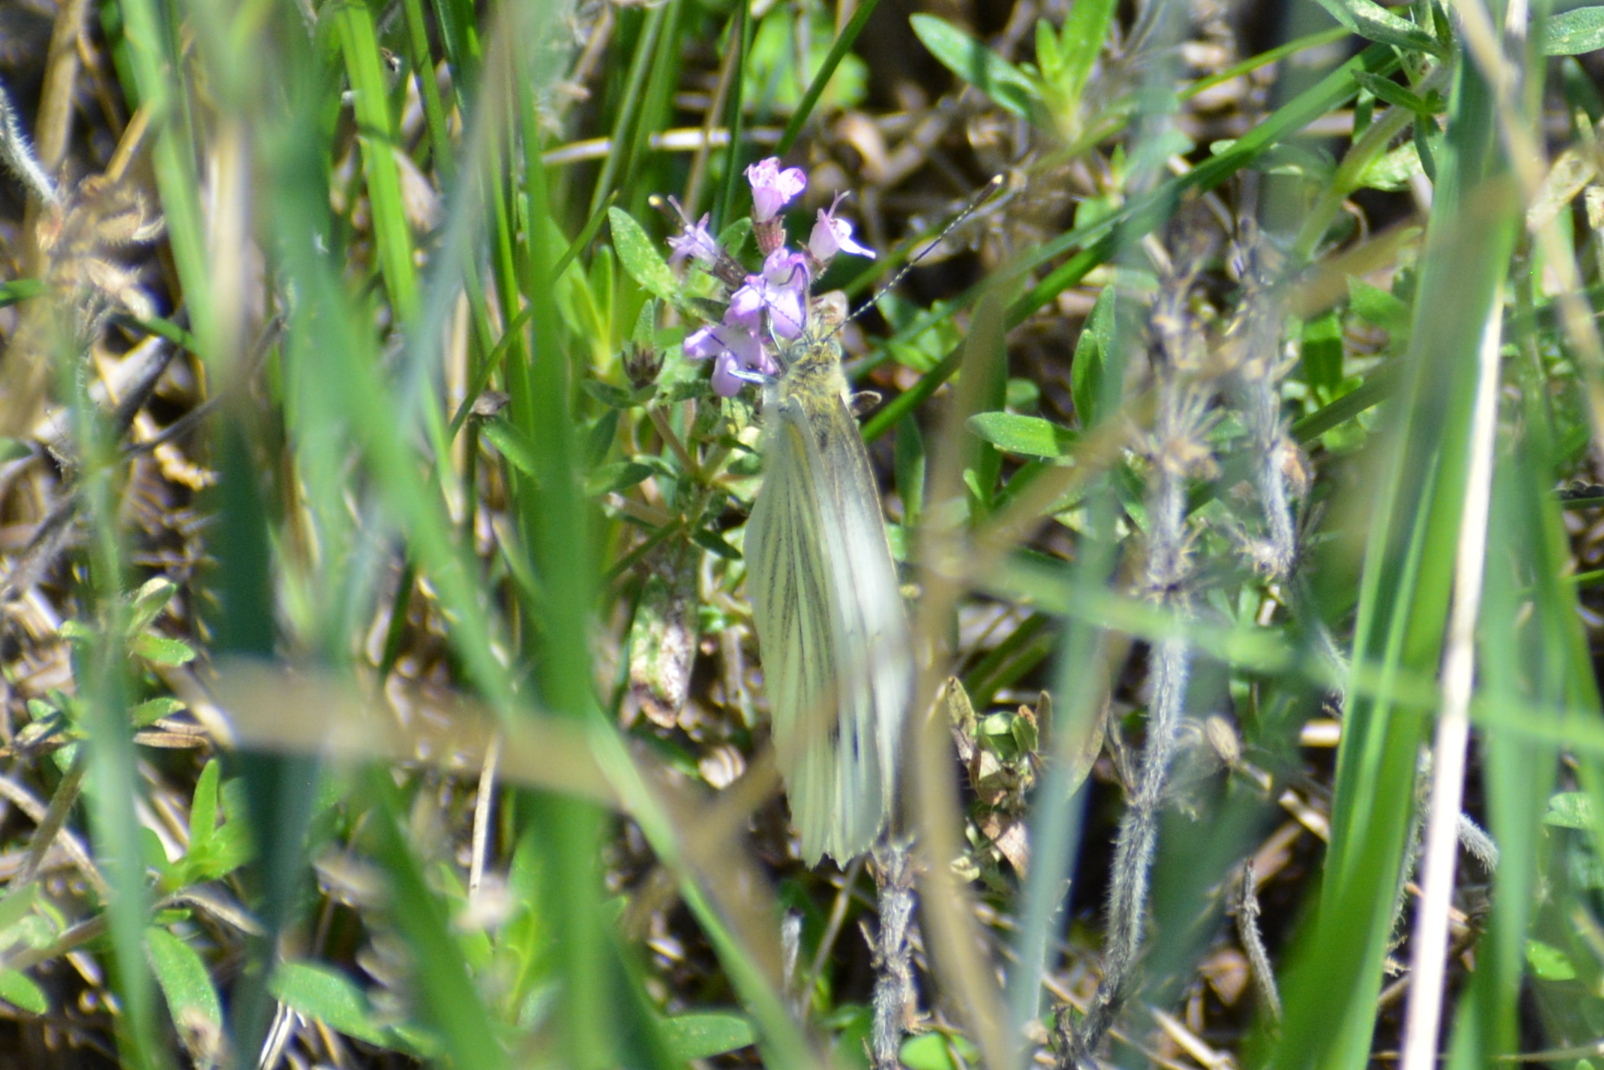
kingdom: Animalia
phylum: Arthropoda
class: Insecta
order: Lepidoptera
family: Pieridae
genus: Pieris
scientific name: Pieris napi
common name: Green-veined white
